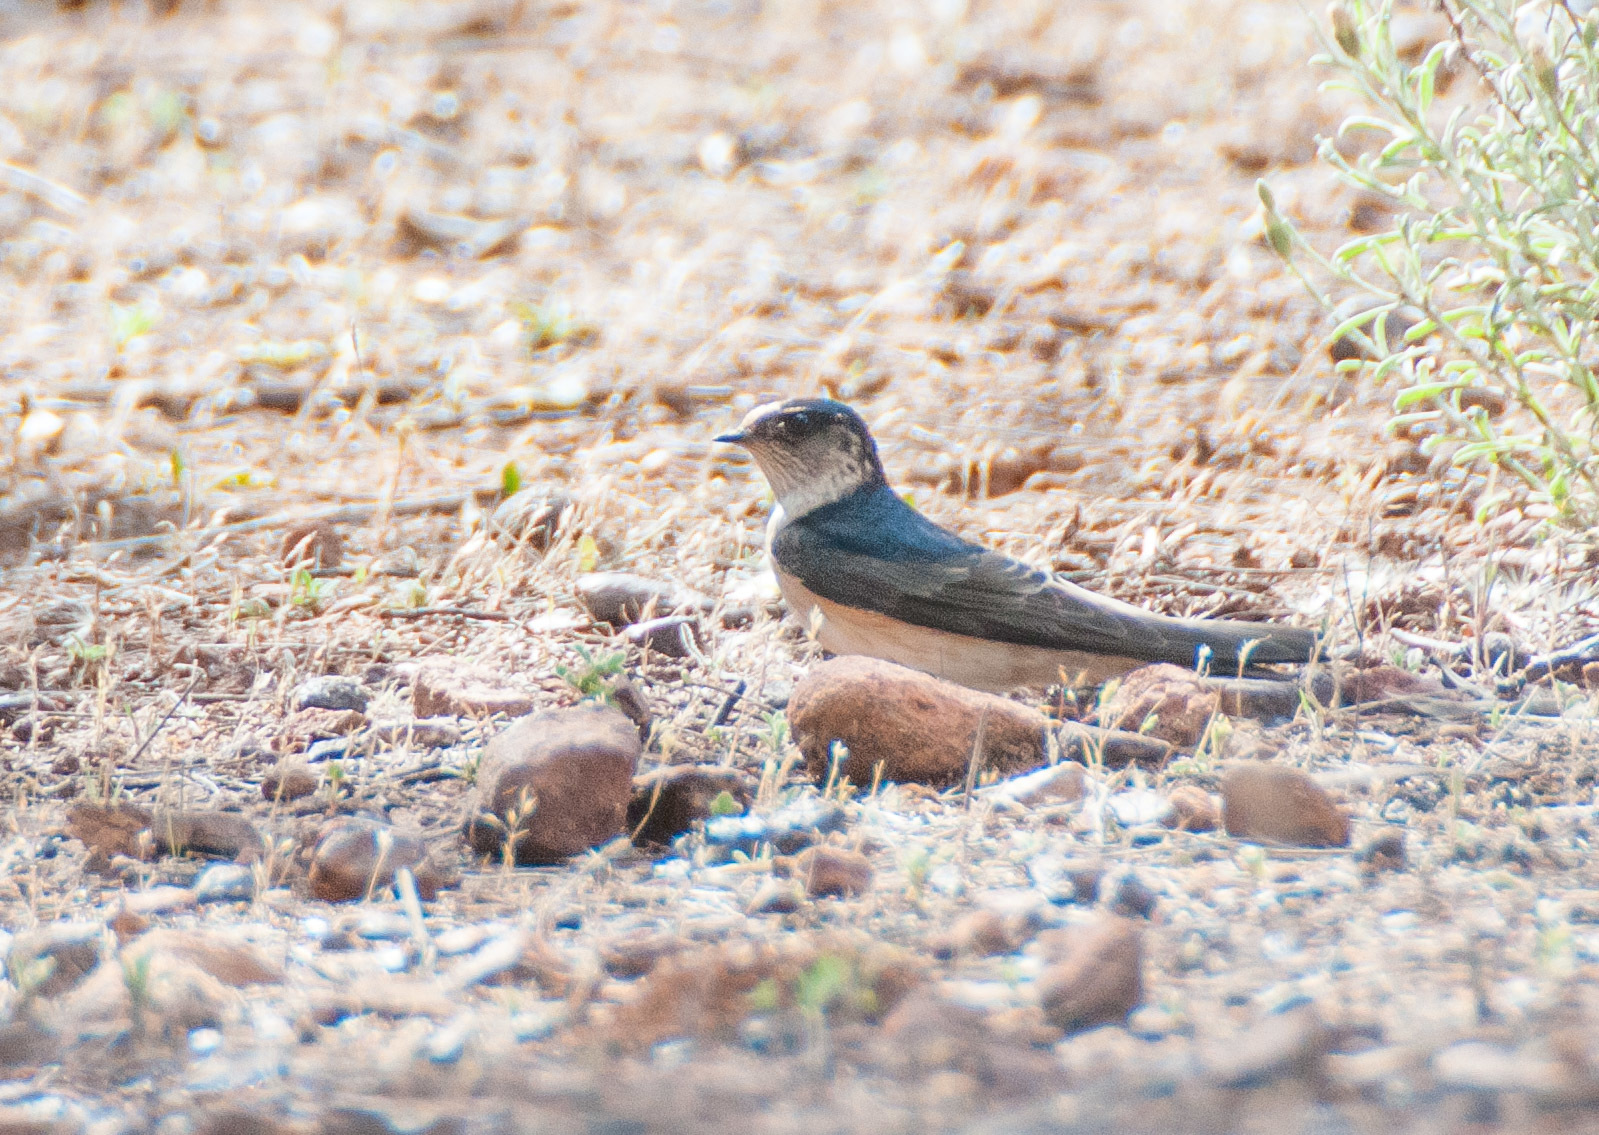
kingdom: Animalia
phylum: Chordata
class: Aves
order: Passeriformes
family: Hirundinidae
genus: Petrochelidon
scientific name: Petrochelidon nigricans
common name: Tree martin
